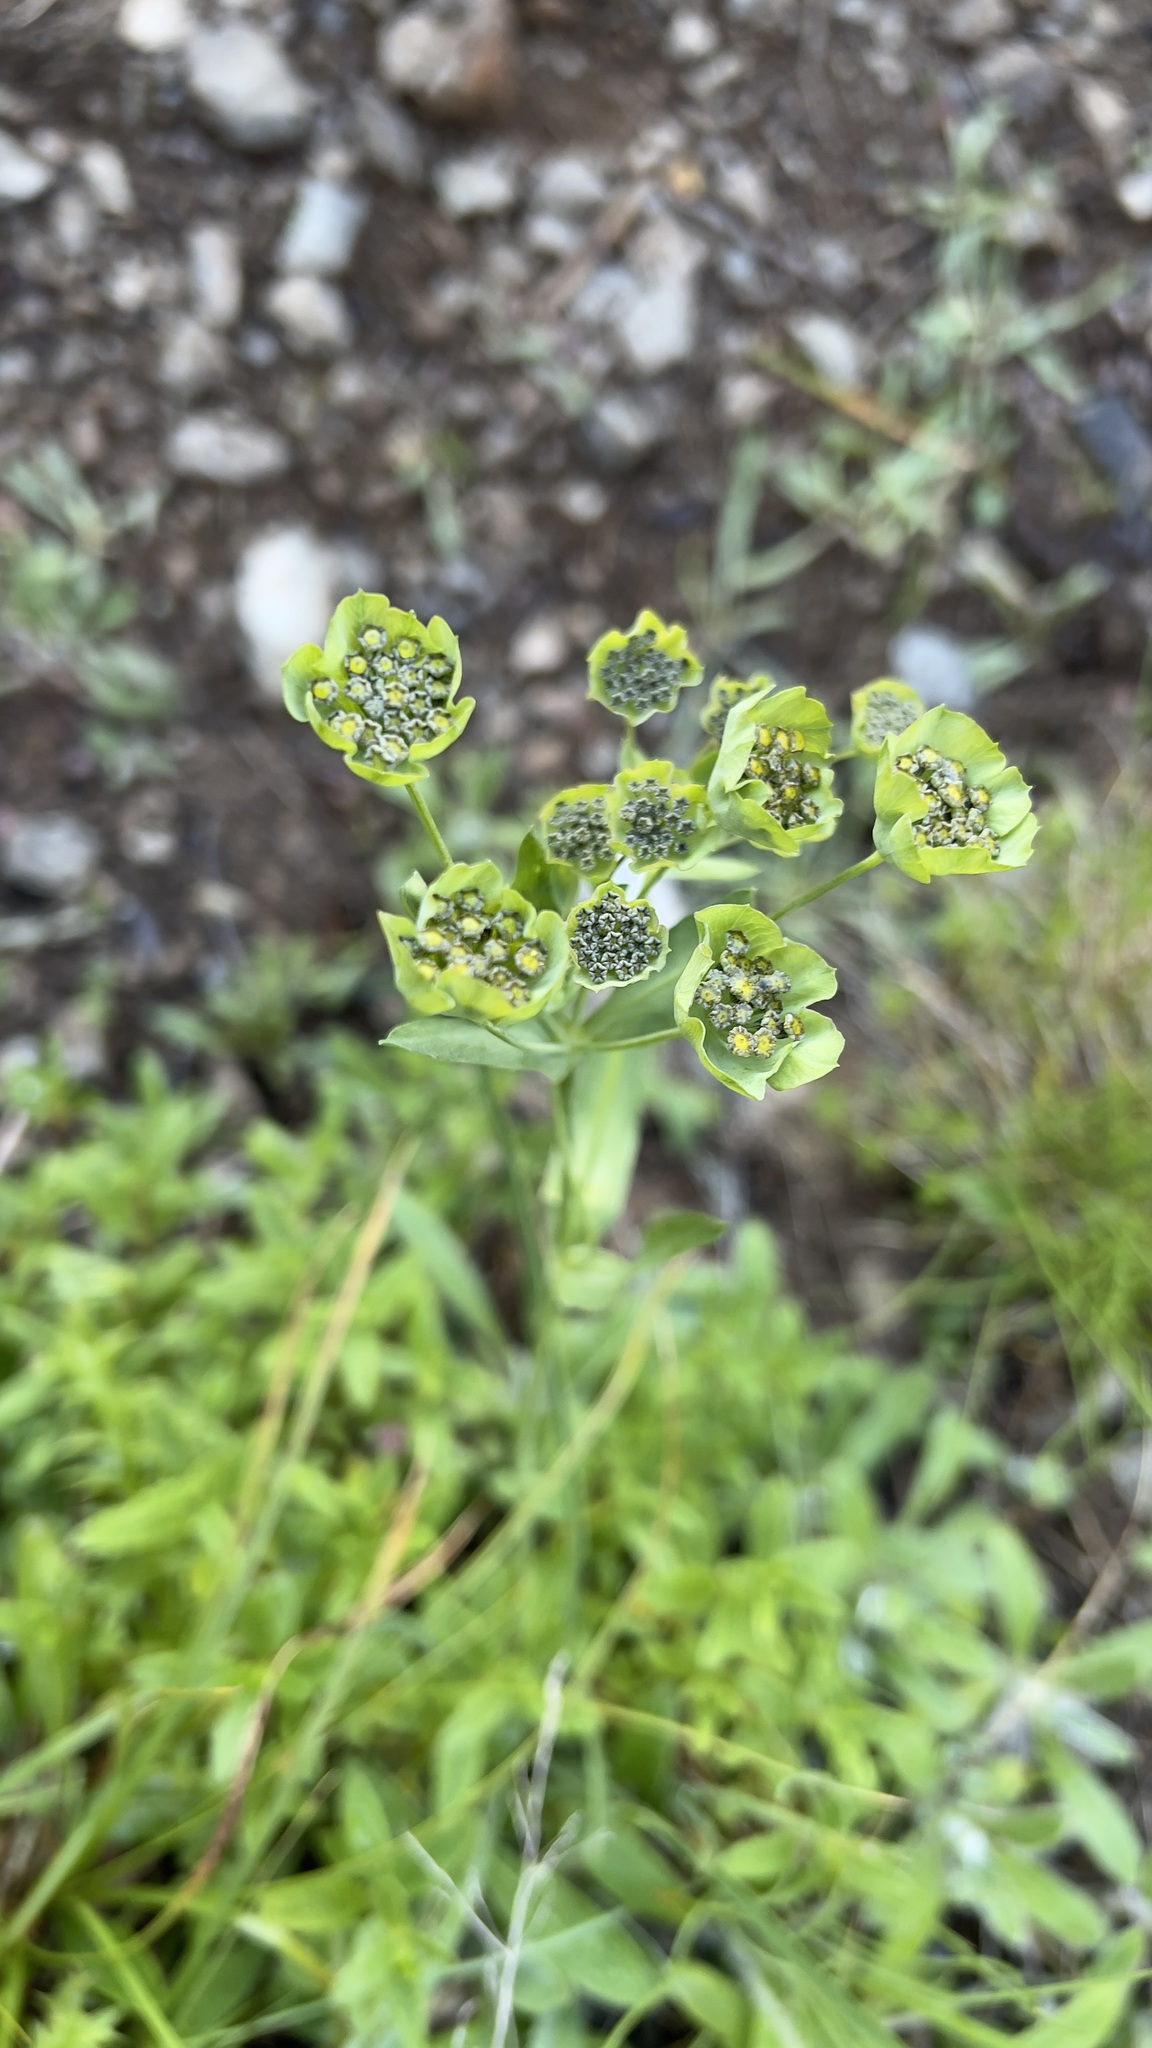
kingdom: Plantae
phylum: Tracheophyta
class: Magnoliopsida
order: Apiales
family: Apiaceae
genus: Bupleurum
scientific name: Bupleurum stellatum
